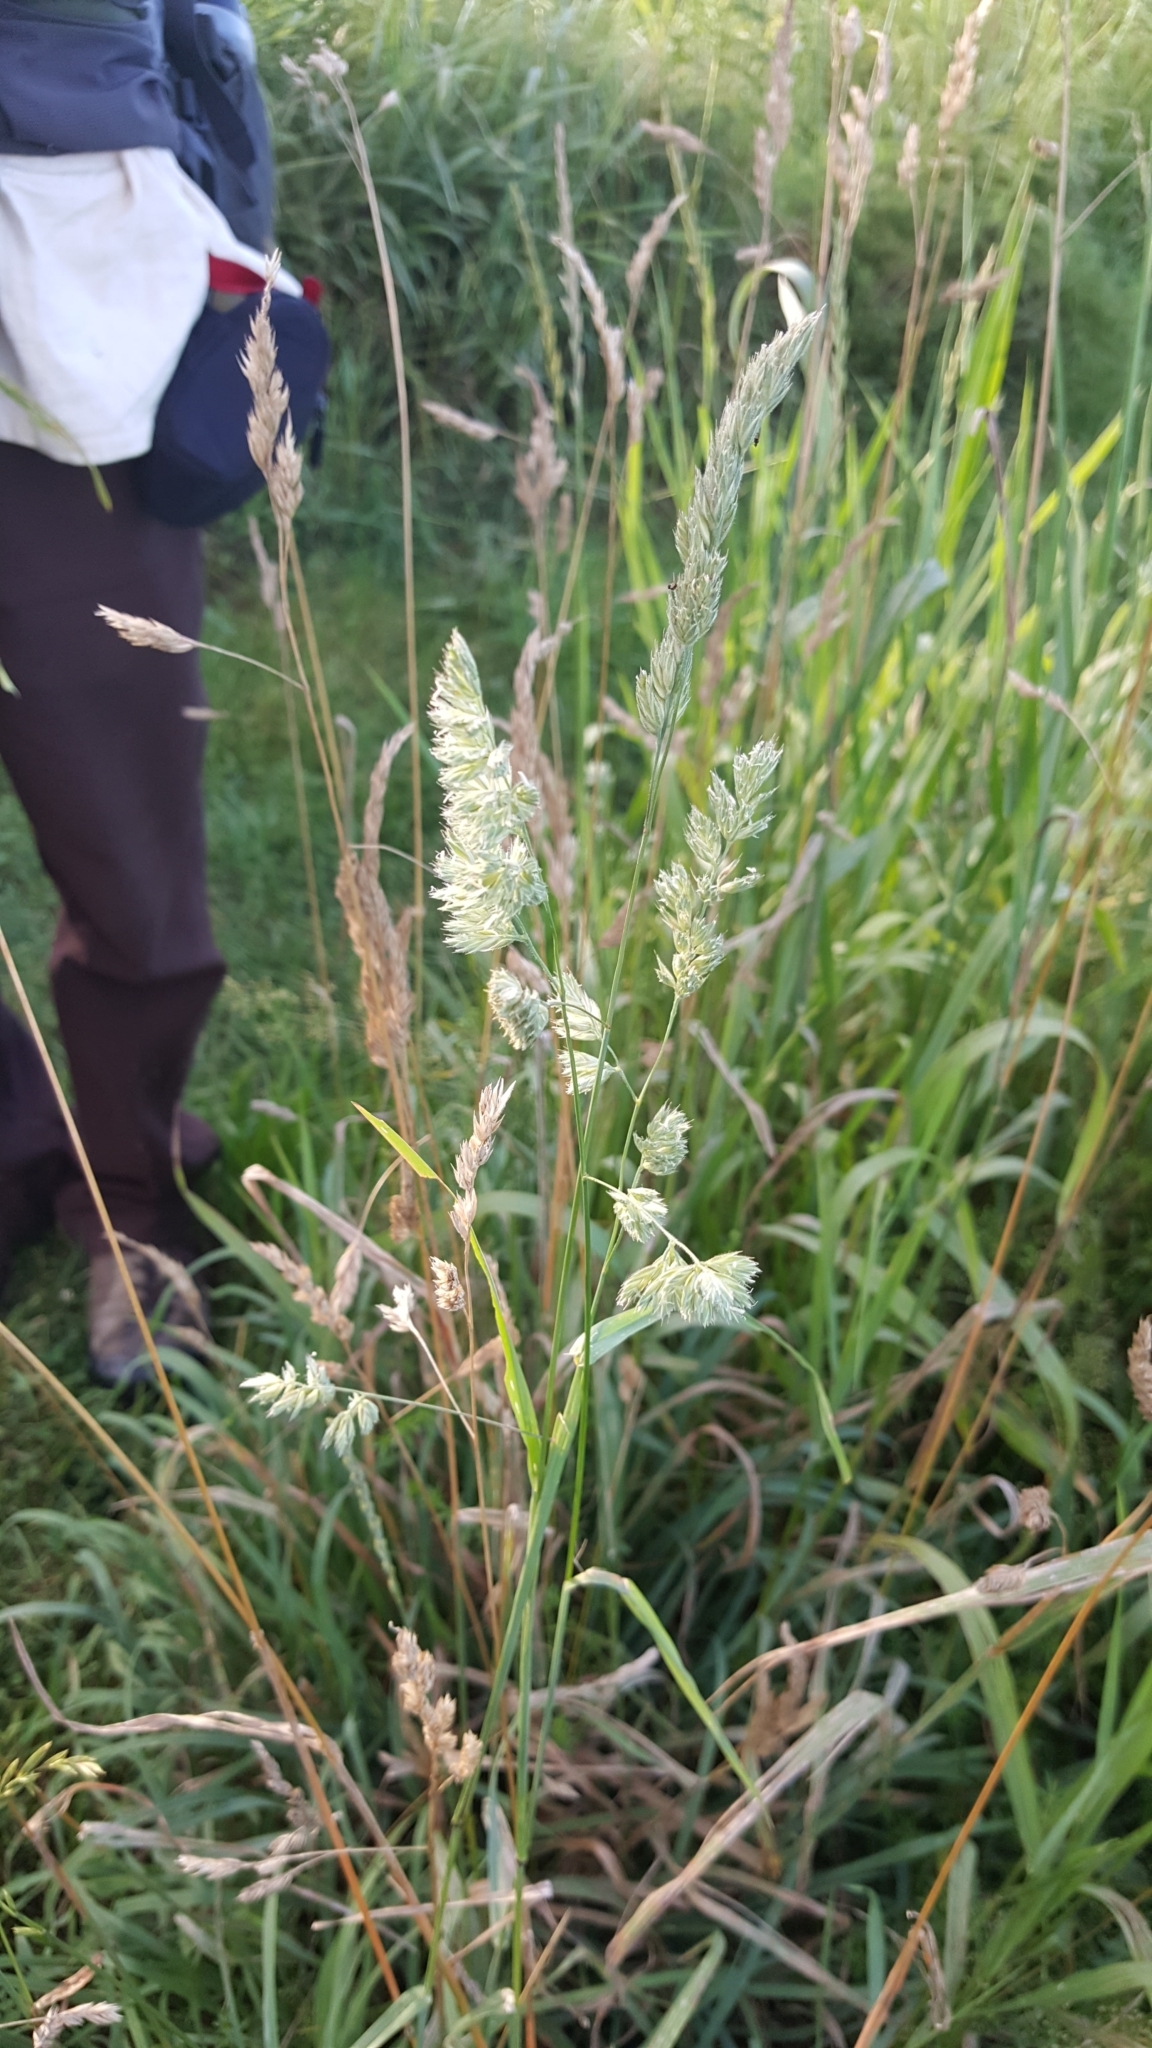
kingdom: Plantae
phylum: Tracheophyta
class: Liliopsida
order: Poales
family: Poaceae
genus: Dactylis
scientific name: Dactylis glomerata
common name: Orchardgrass
